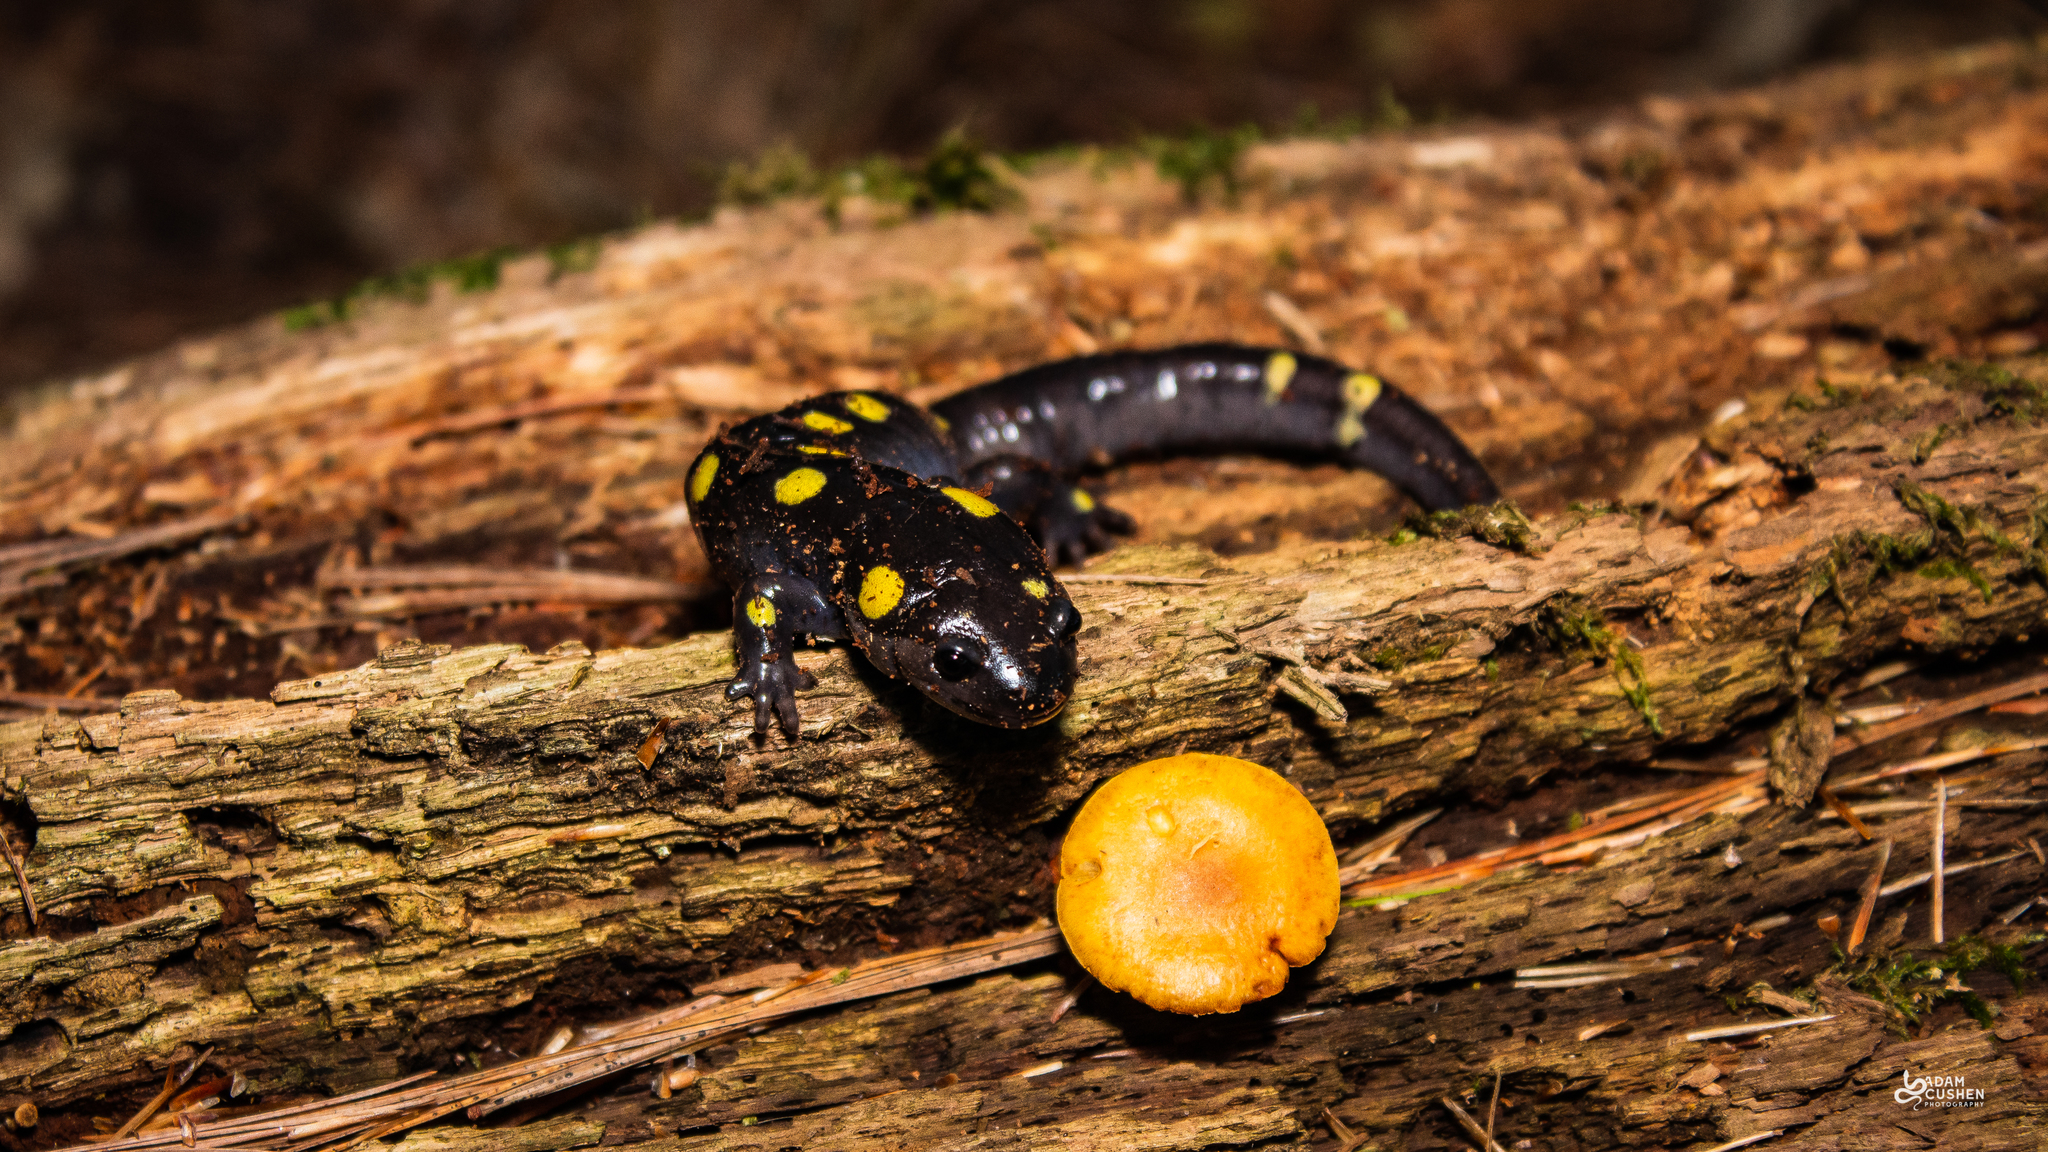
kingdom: Animalia
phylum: Chordata
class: Amphibia
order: Caudata
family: Ambystomatidae
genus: Ambystoma
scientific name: Ambystoma maculatum
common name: Spotted salamander
